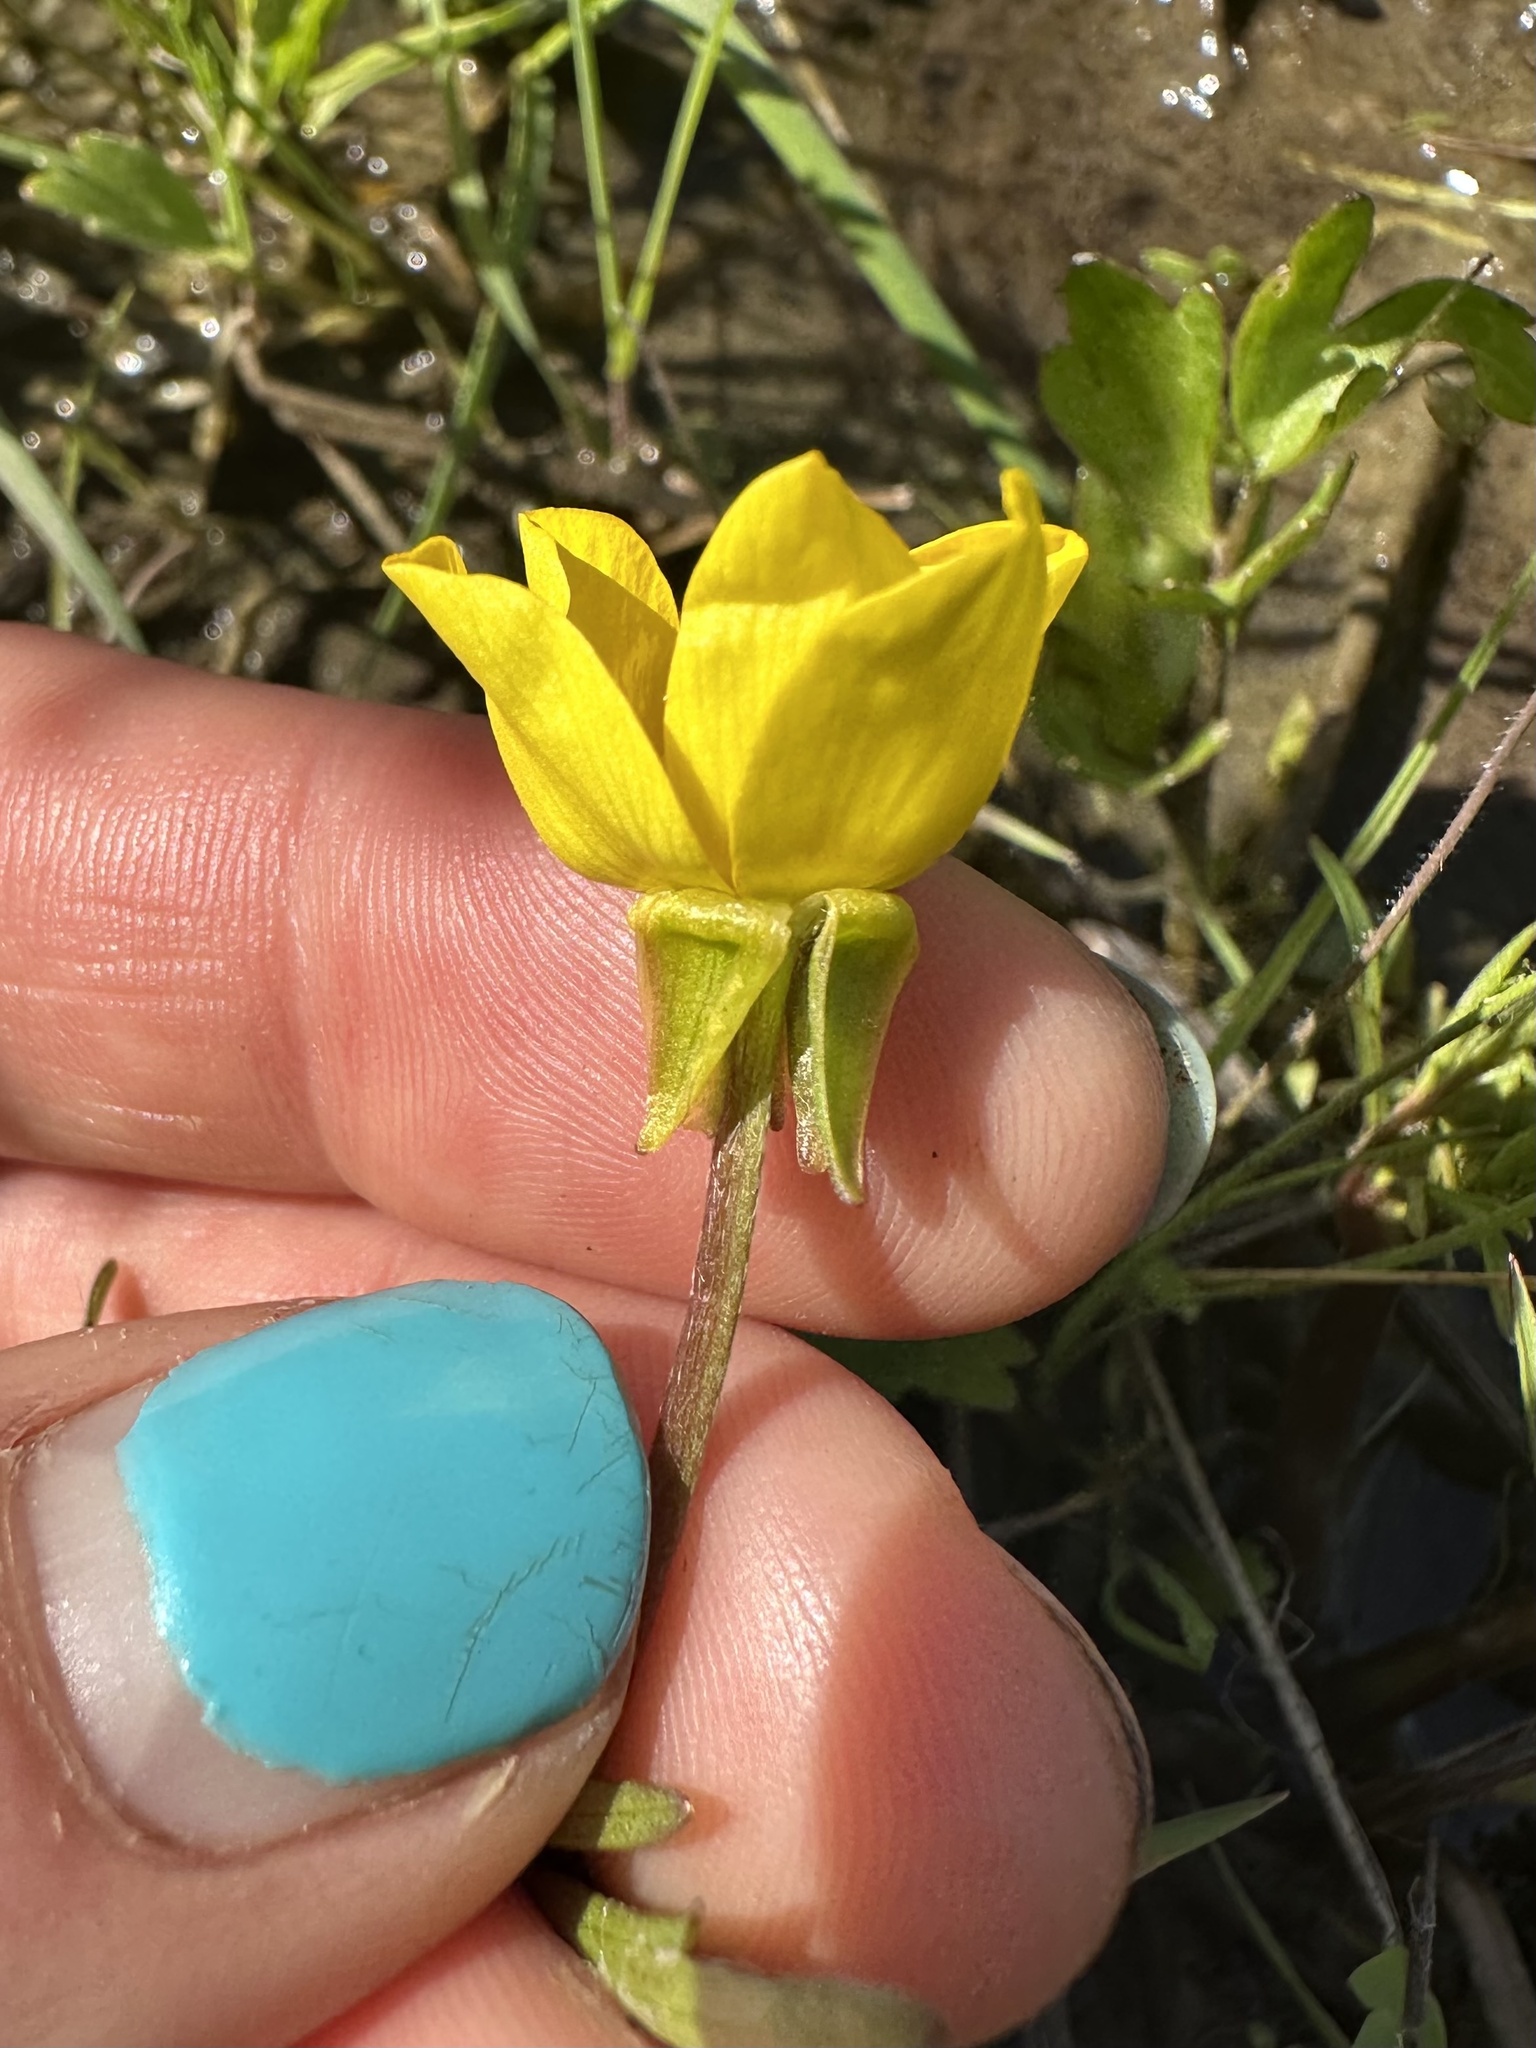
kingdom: Plantae
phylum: Tracheophyta
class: Magnoliopsida
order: Ranunculales
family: Ranunculaceae
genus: Ranunculus
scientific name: Ranunculus orthorhynchus
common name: Straight-beak buttercup
